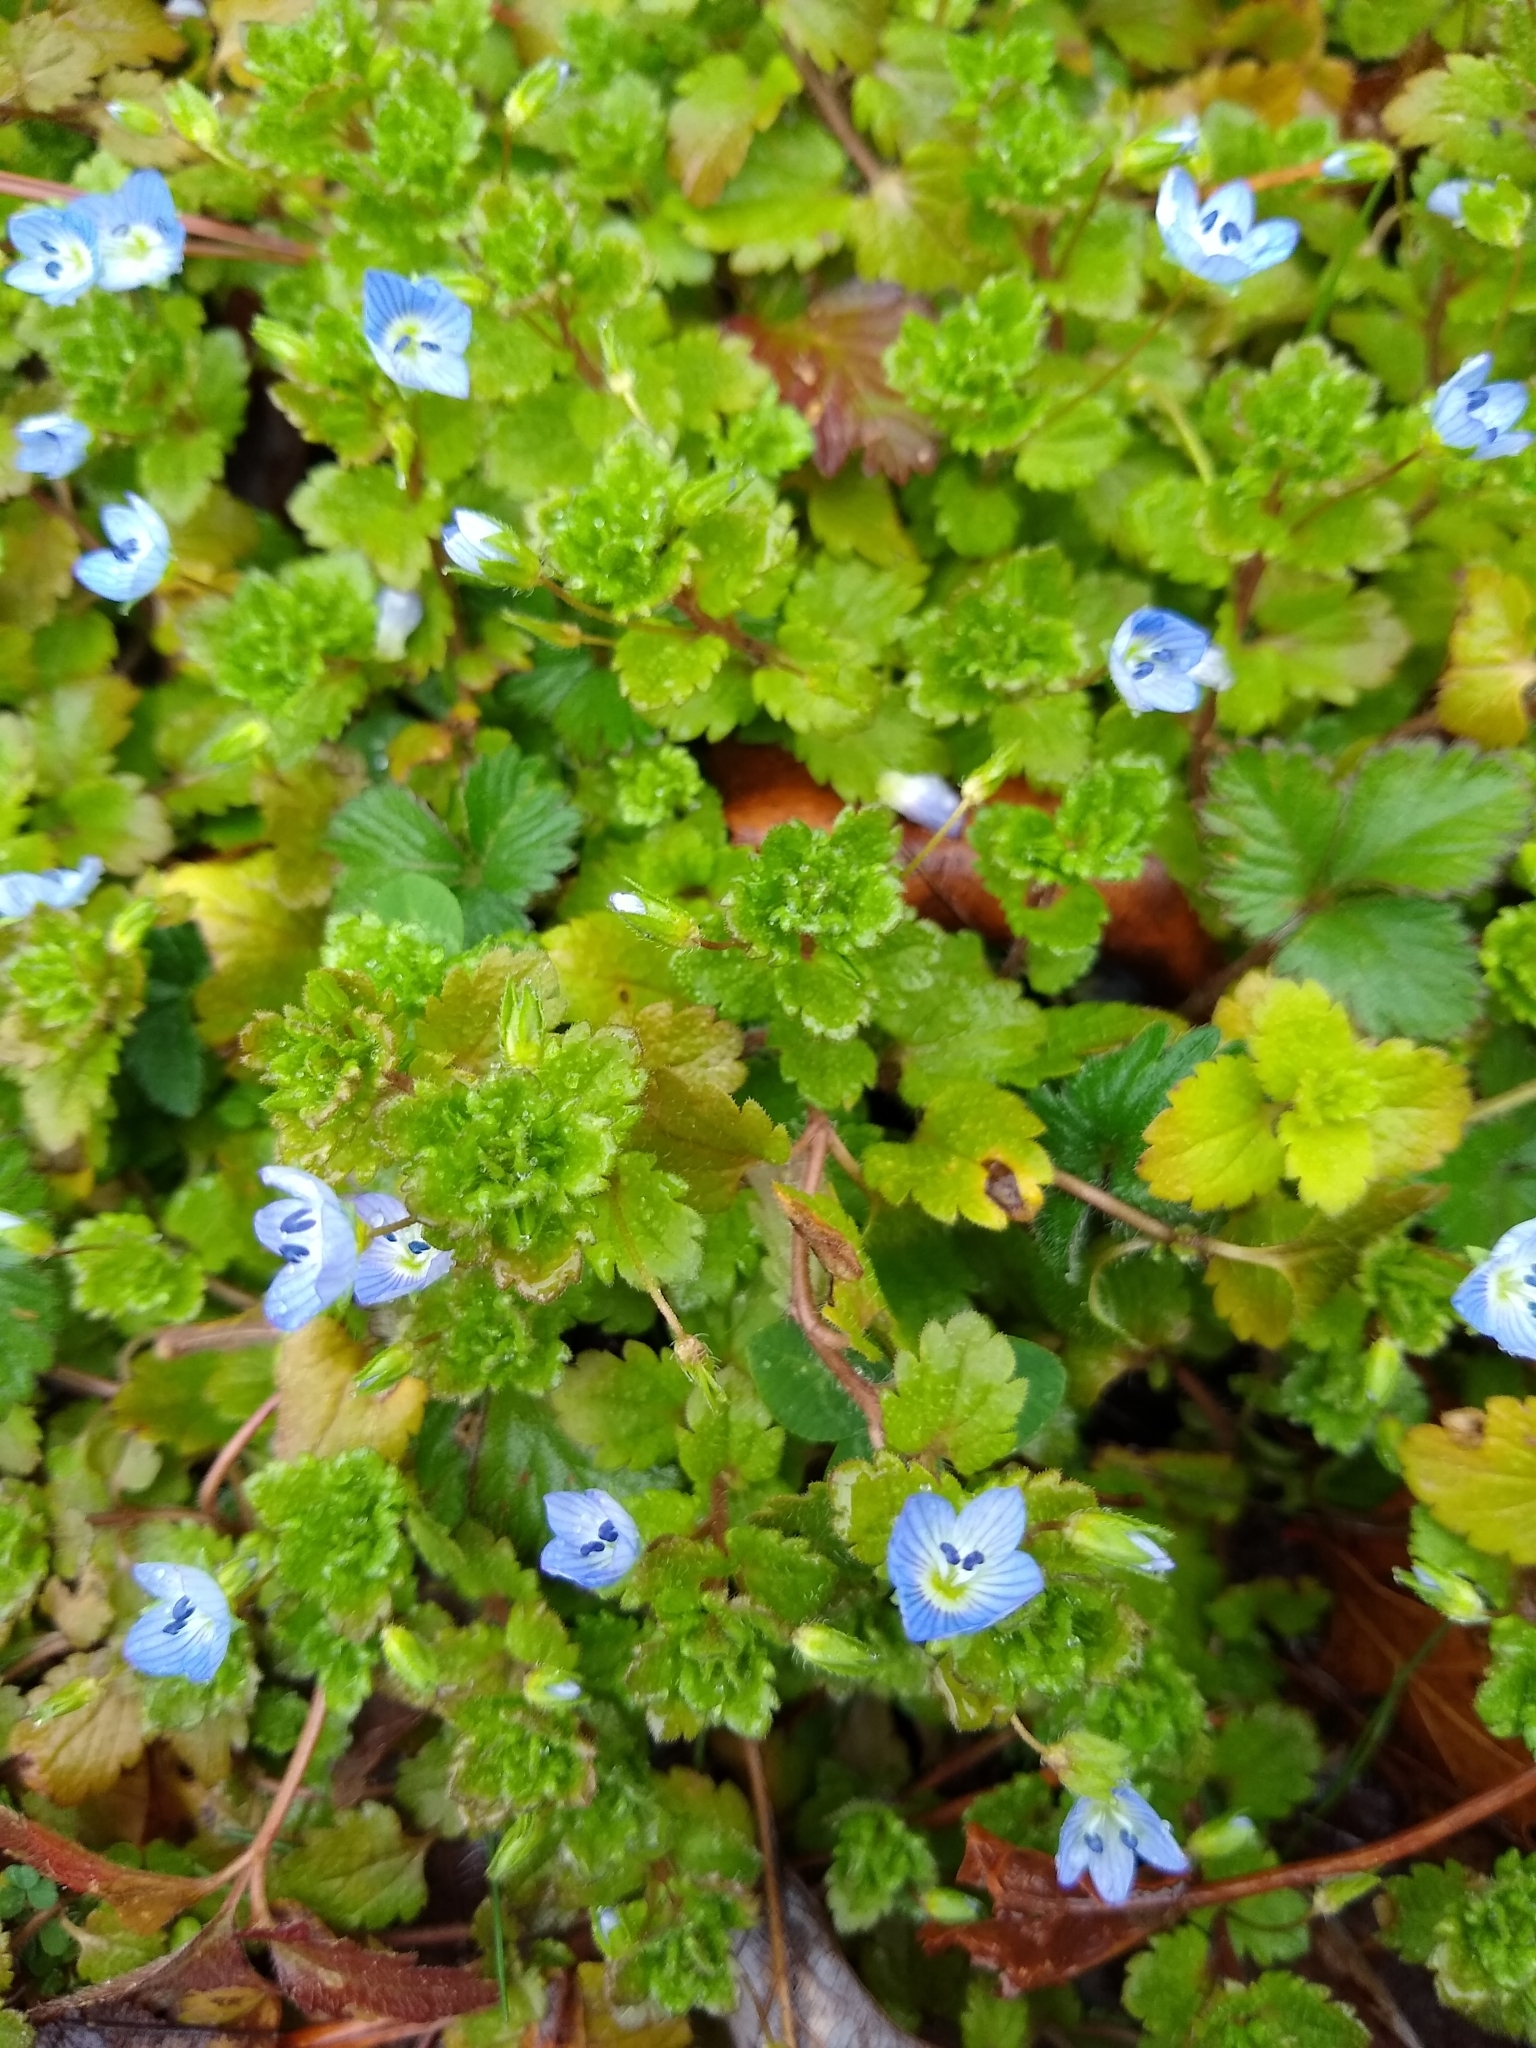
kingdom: Plantae
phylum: Tracheophyta
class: Magnoliopsida
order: Lamiales
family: Plantaginaceae
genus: Veronica
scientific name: Veronica persica
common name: Common field-speedwell
